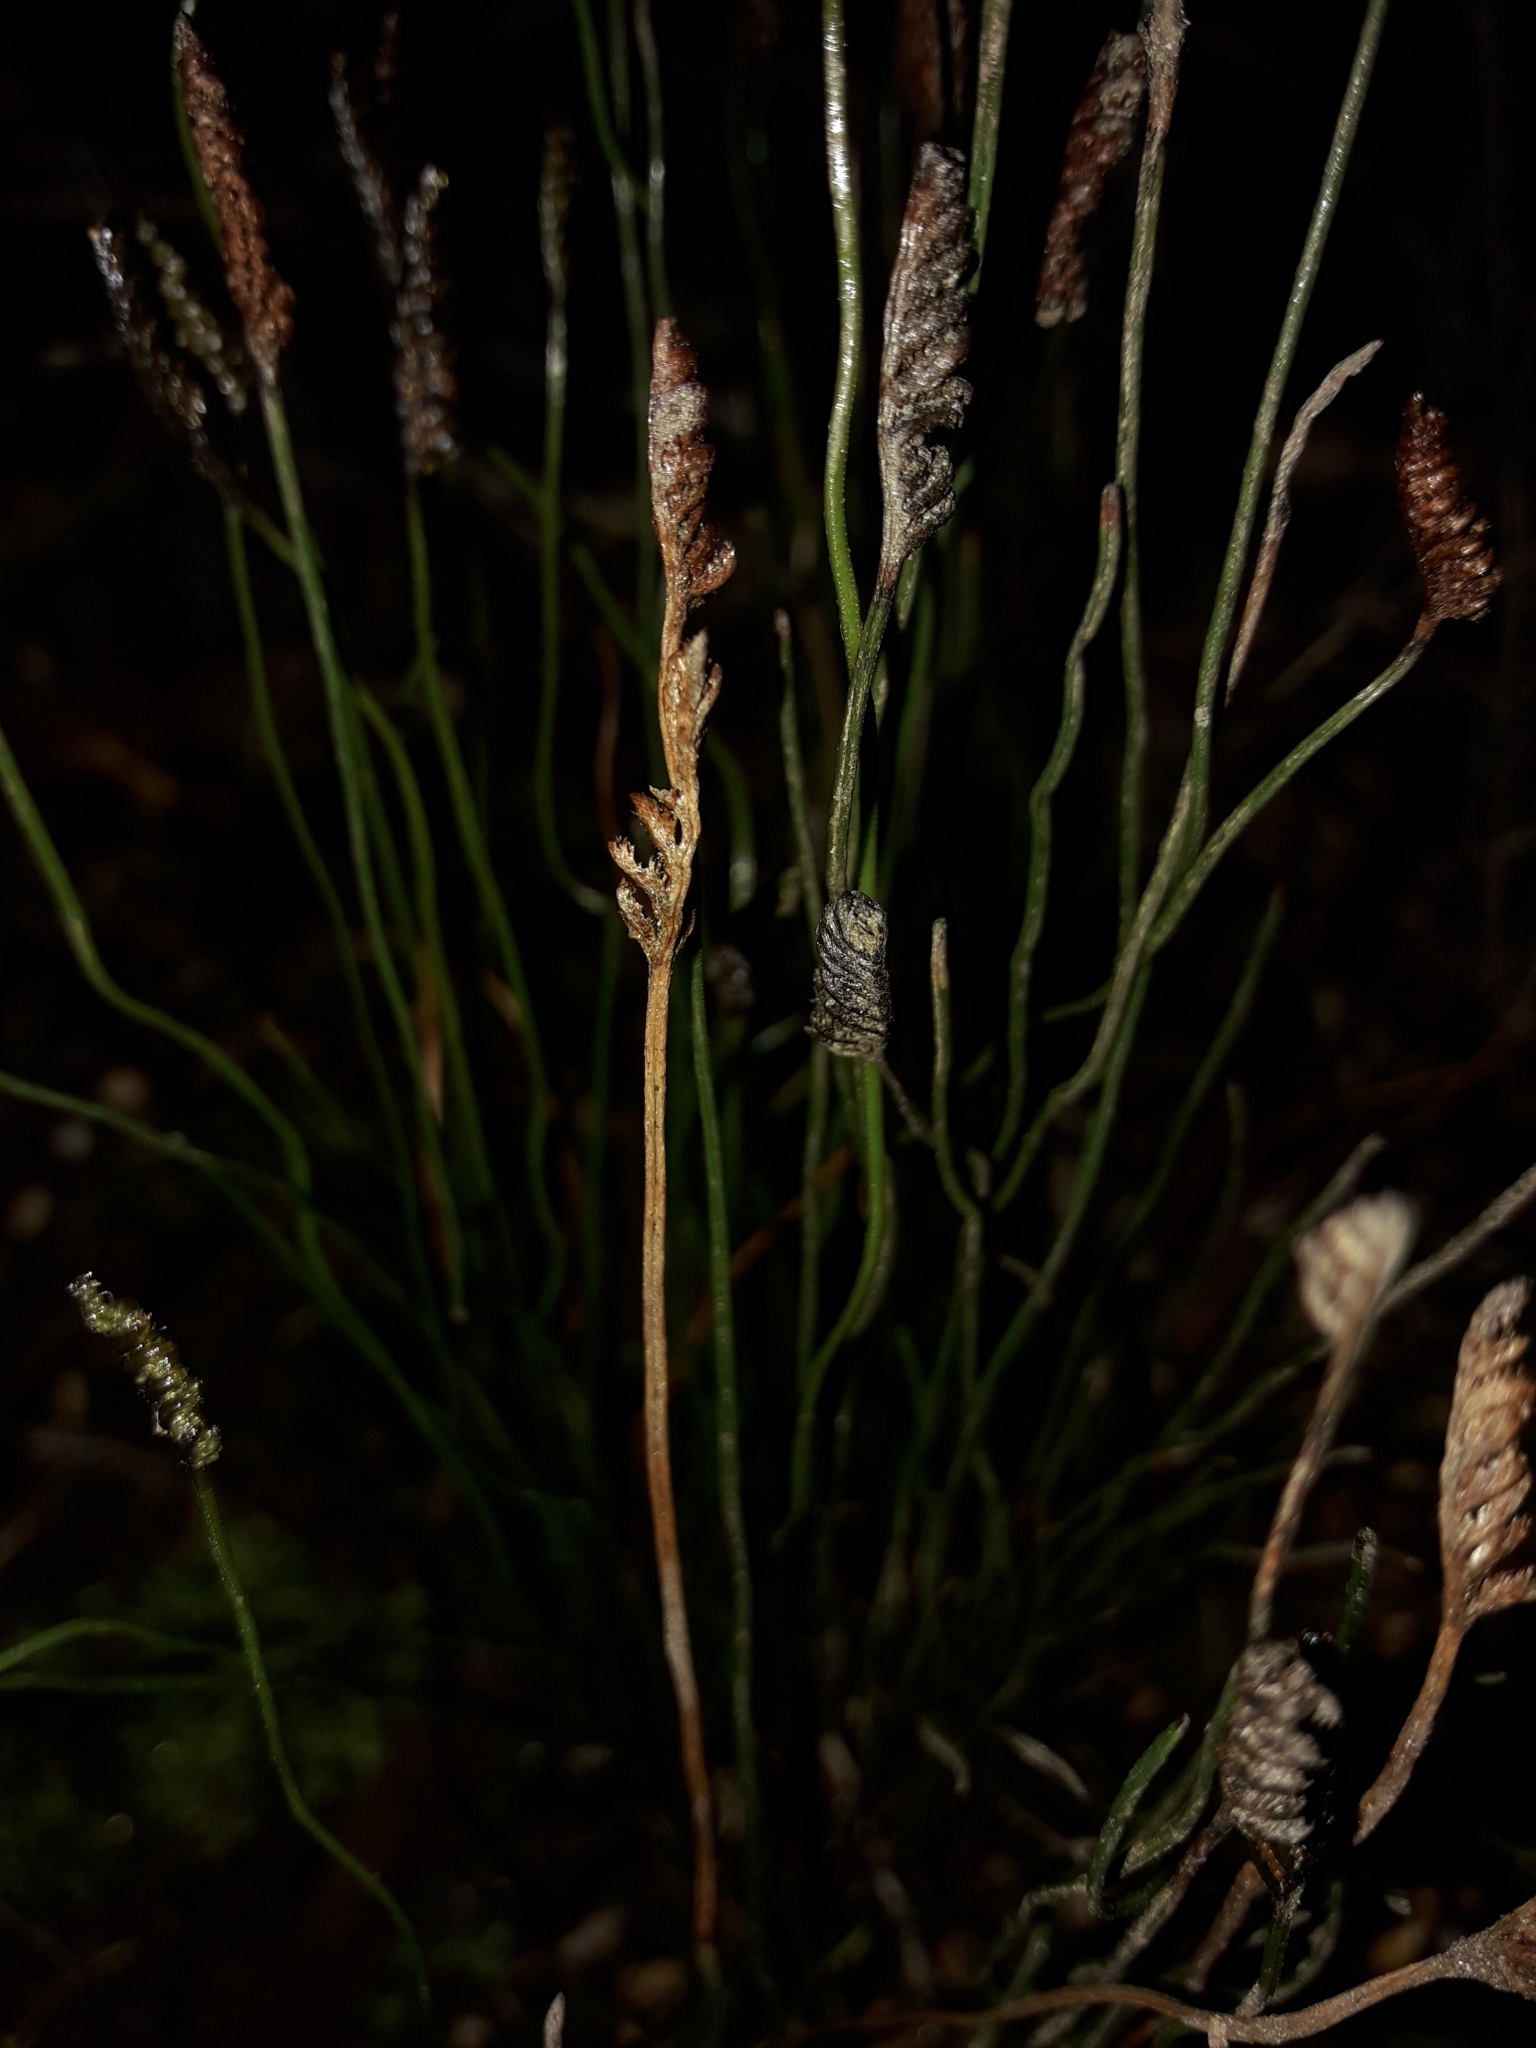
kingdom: Plantae
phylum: Tracheophyta
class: Polypodiopsida
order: Schizaeales
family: Schizaeaceae
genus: Microschizaea
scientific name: Microschizaea australis
